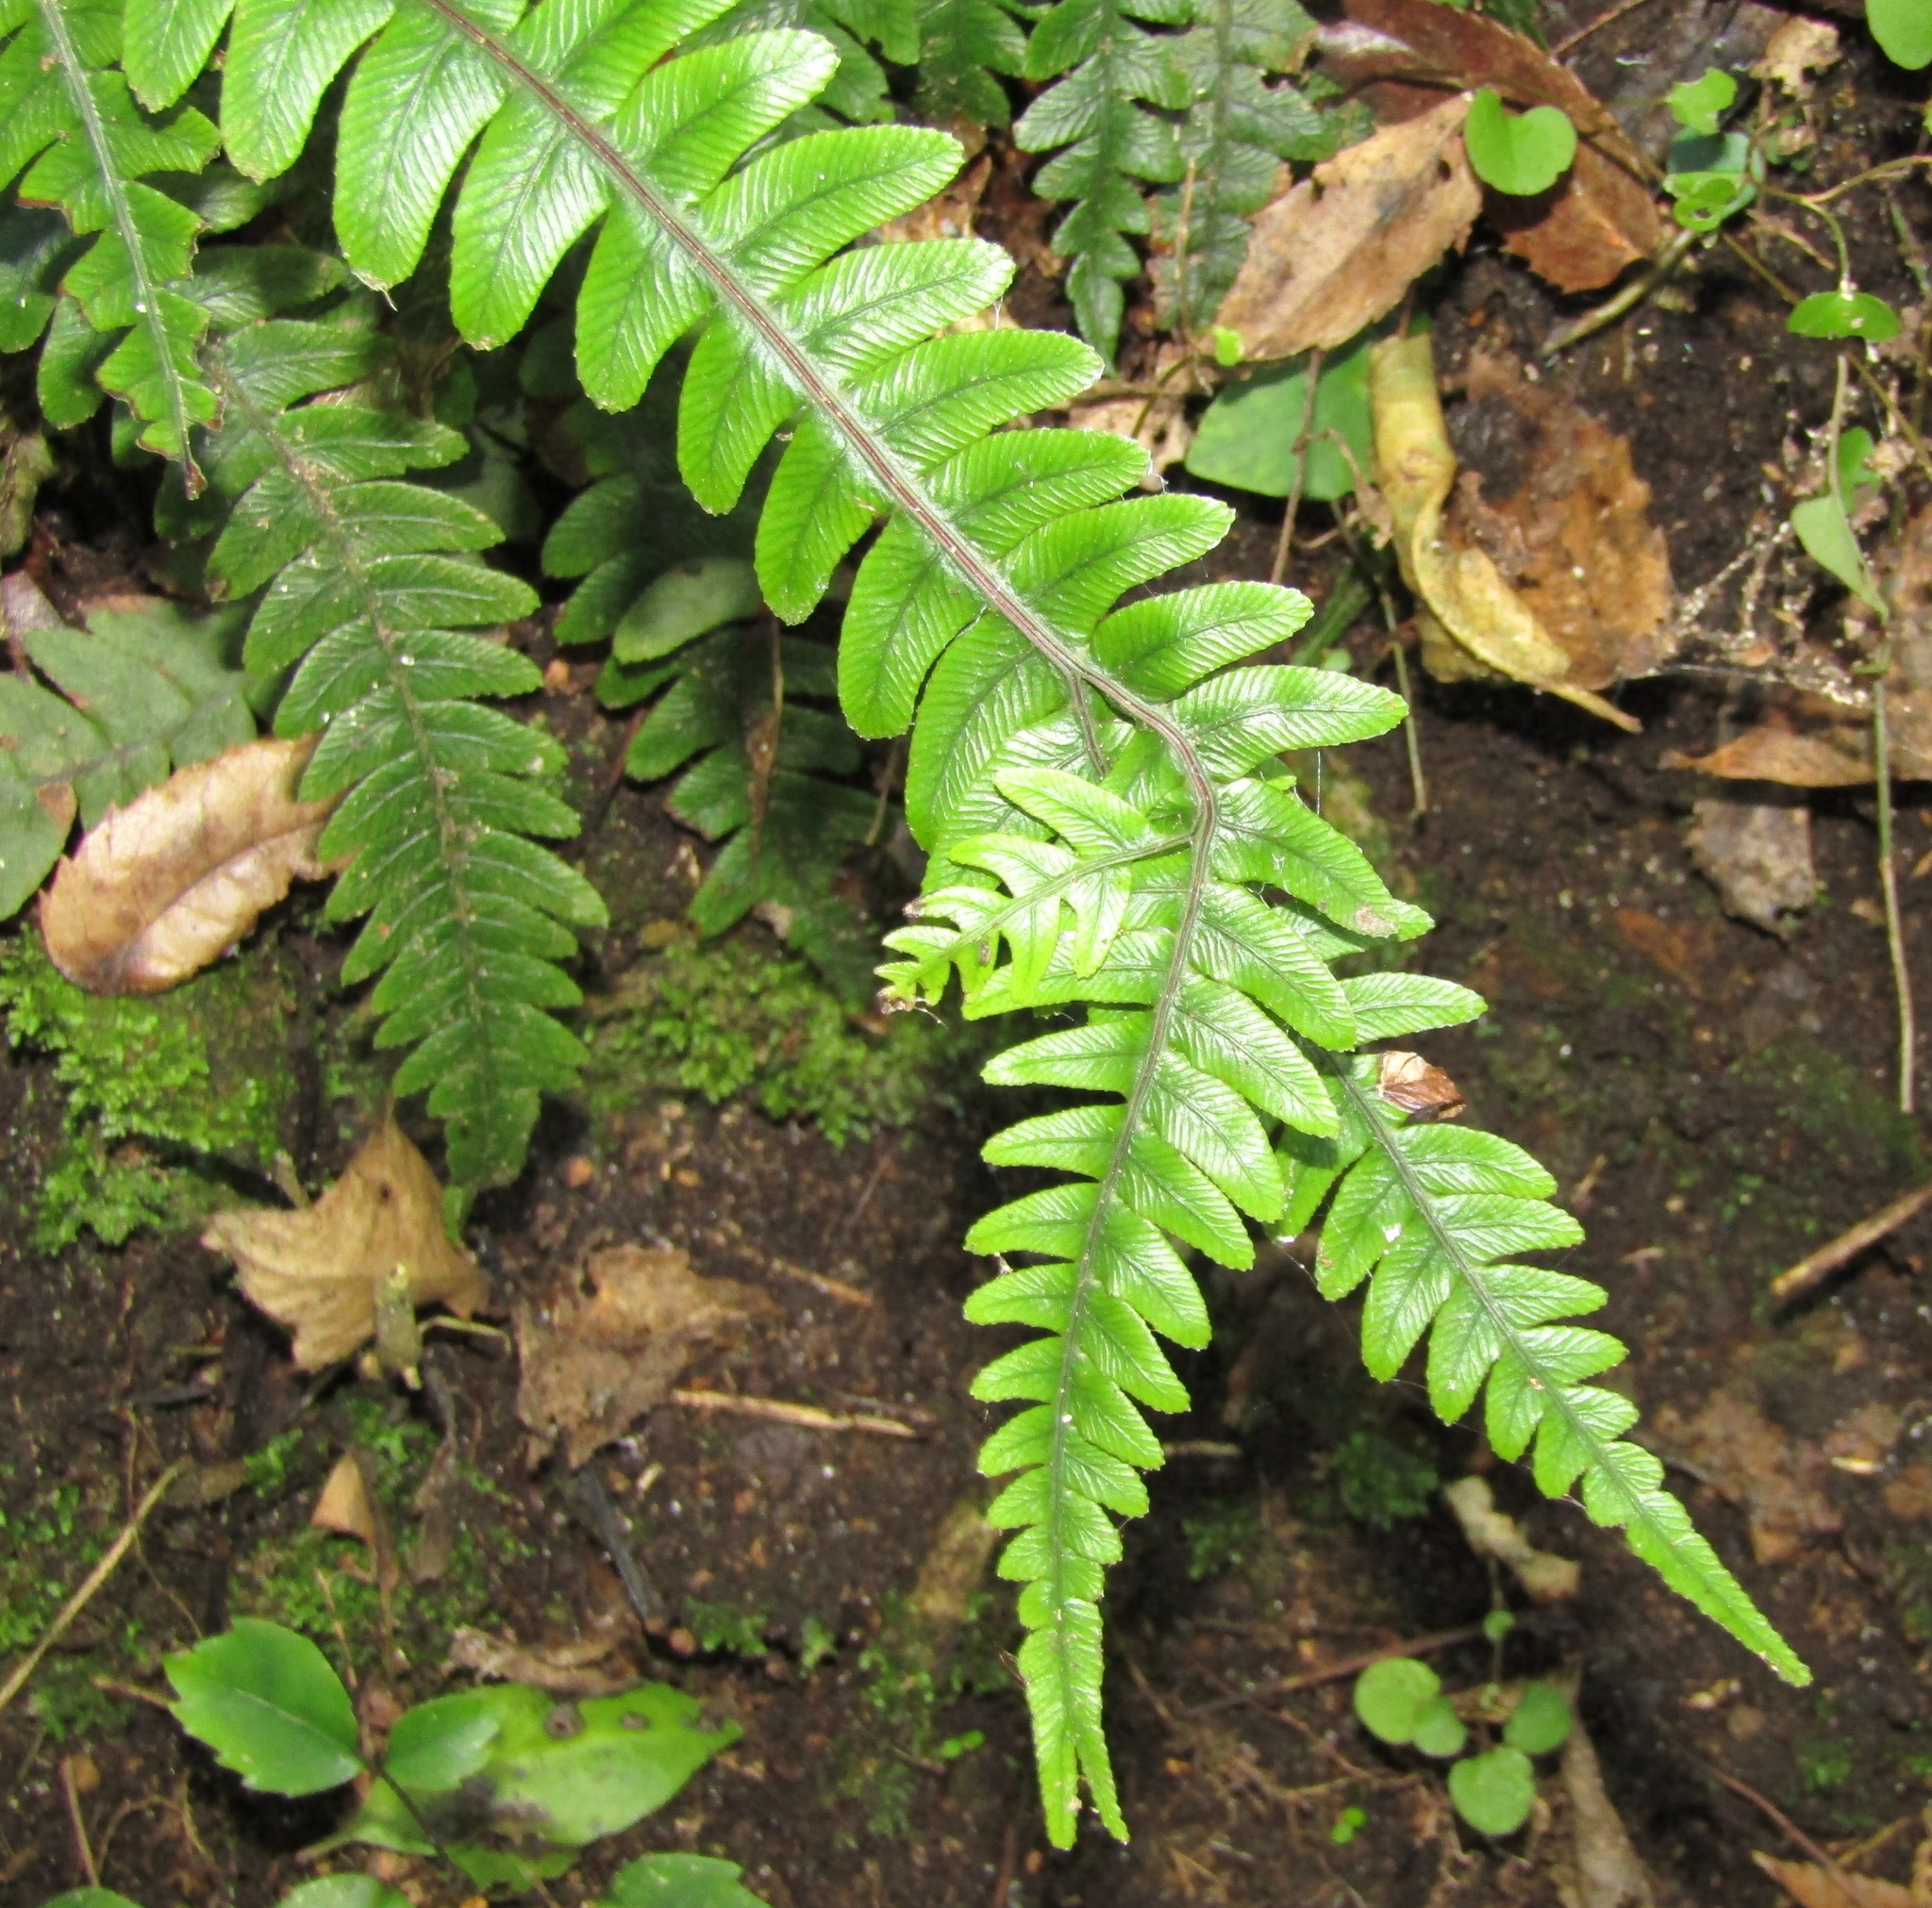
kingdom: Plantae
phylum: Tracheophyta
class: Polypodiopsida
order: Polypodiales
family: Blechnaceae
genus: Austroblechnum
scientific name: Austroblechnum lanceolatum
